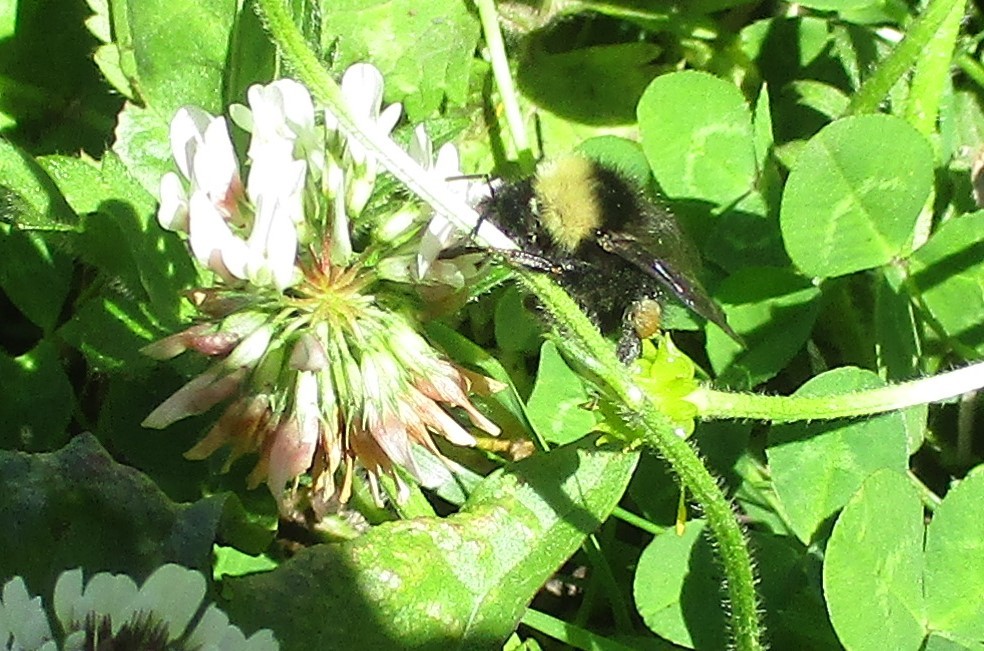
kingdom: Animalia
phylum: Arthropoda
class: Insecta
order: Hymenoptera
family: Apidae
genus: Bombus
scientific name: Bombus californicus
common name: California bumble bee
